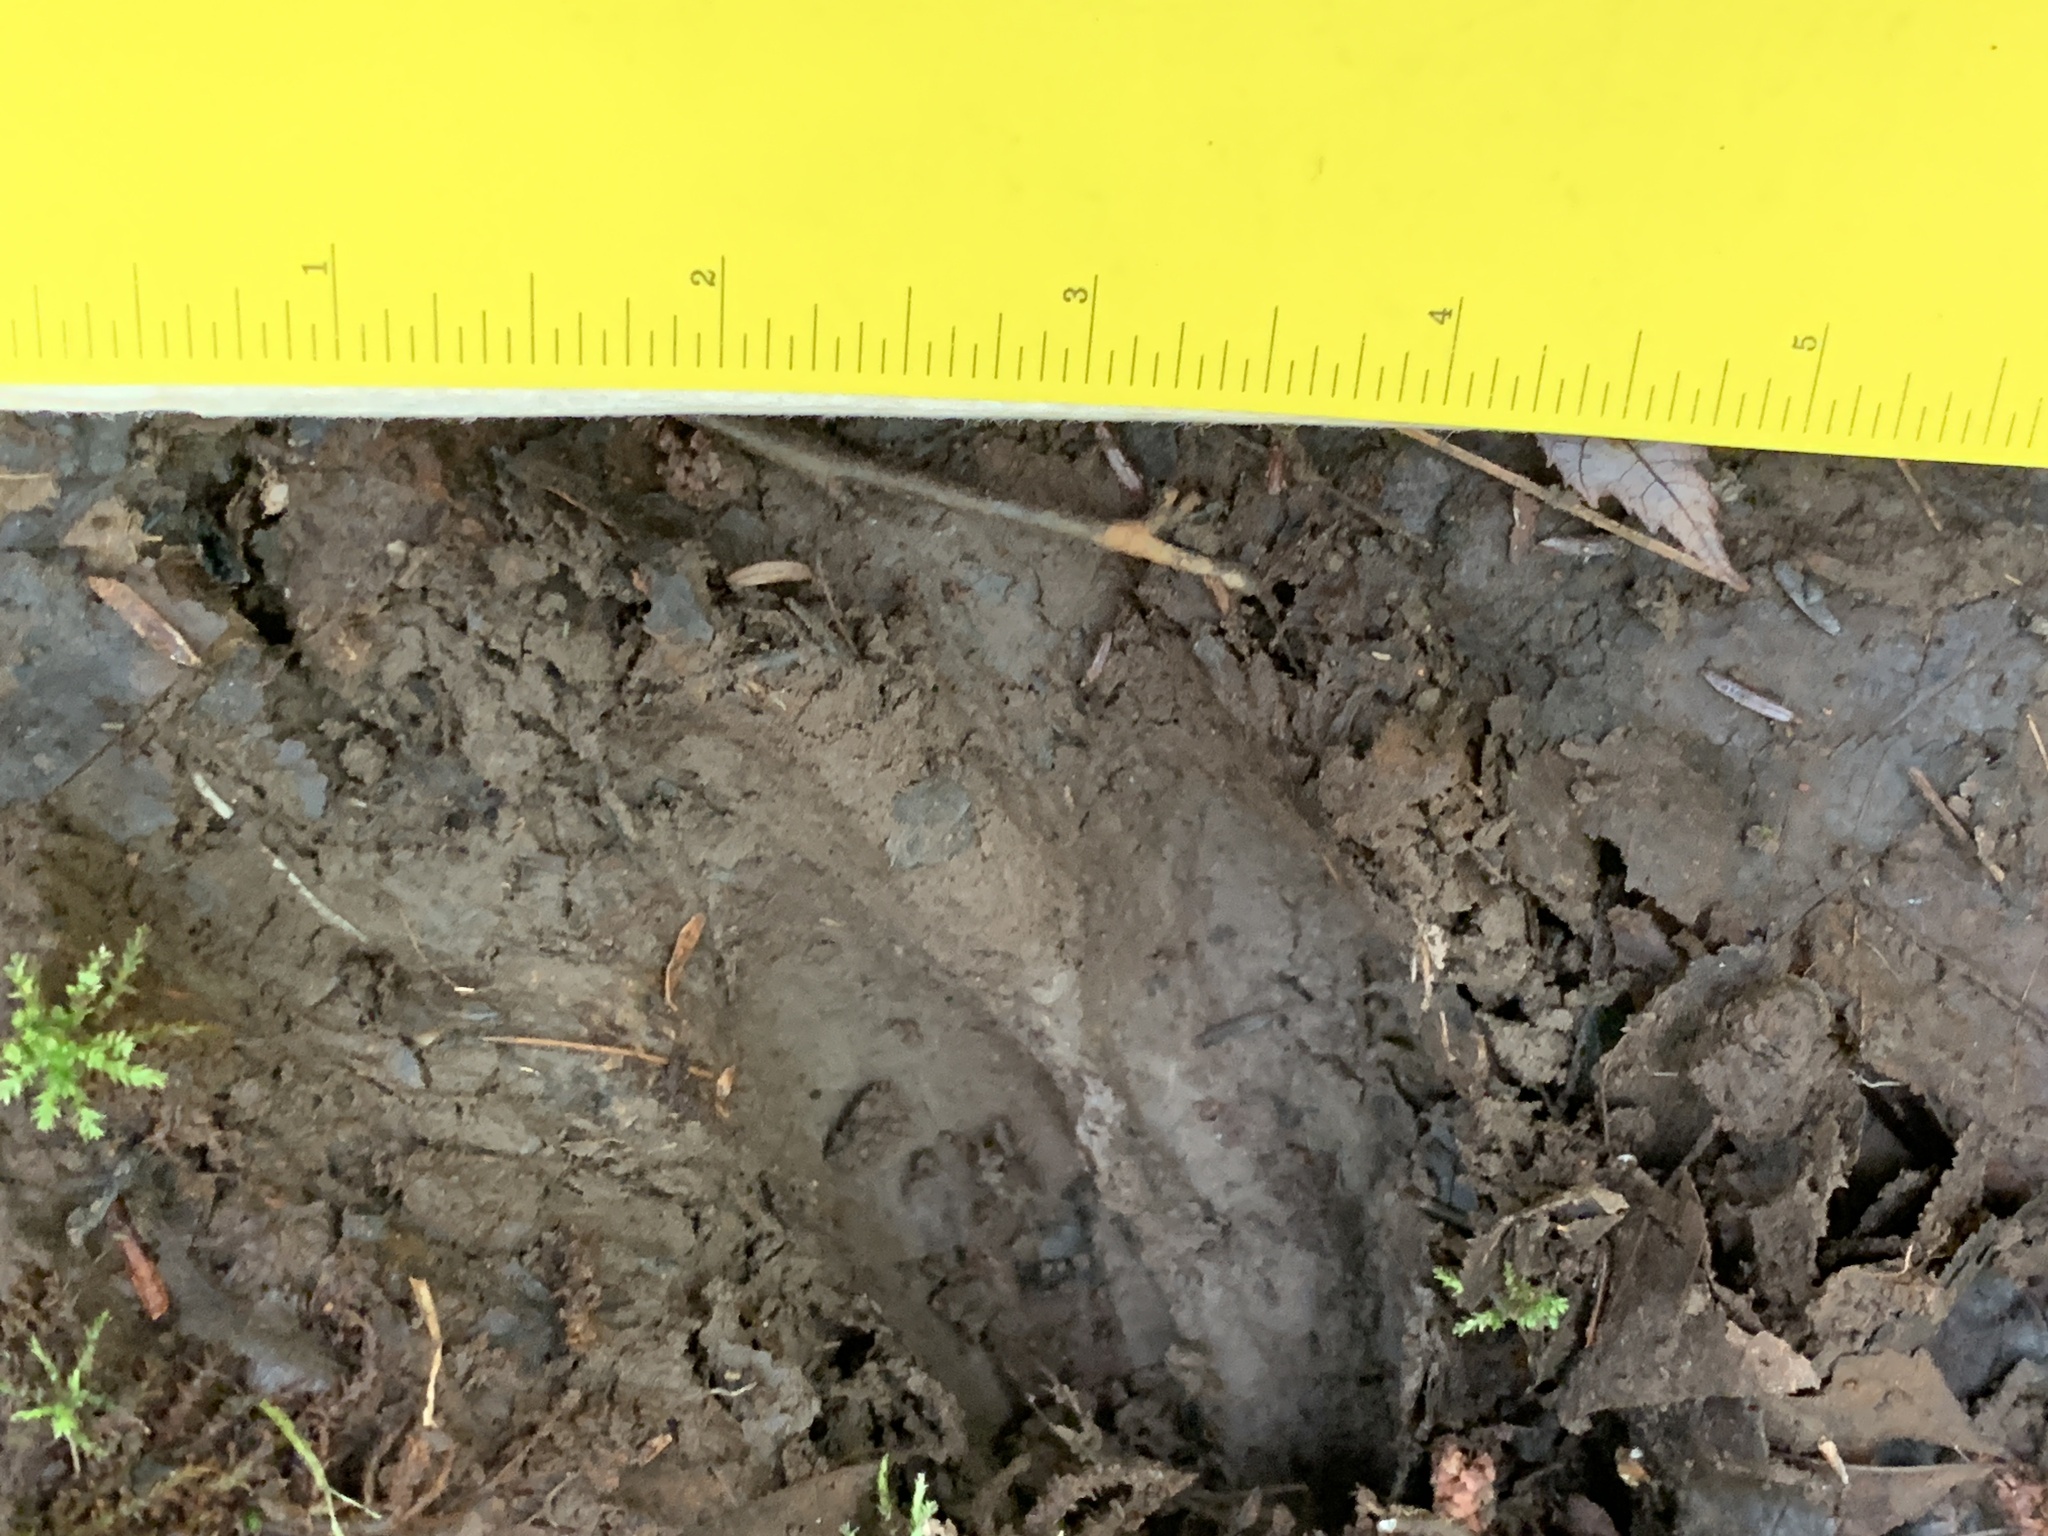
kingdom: Animalia
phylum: Chordata
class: Mammalia
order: Artiodactyla
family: Cervidae
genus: Odocoileus
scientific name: Odocoileus virginianus
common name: White-tailed deer
